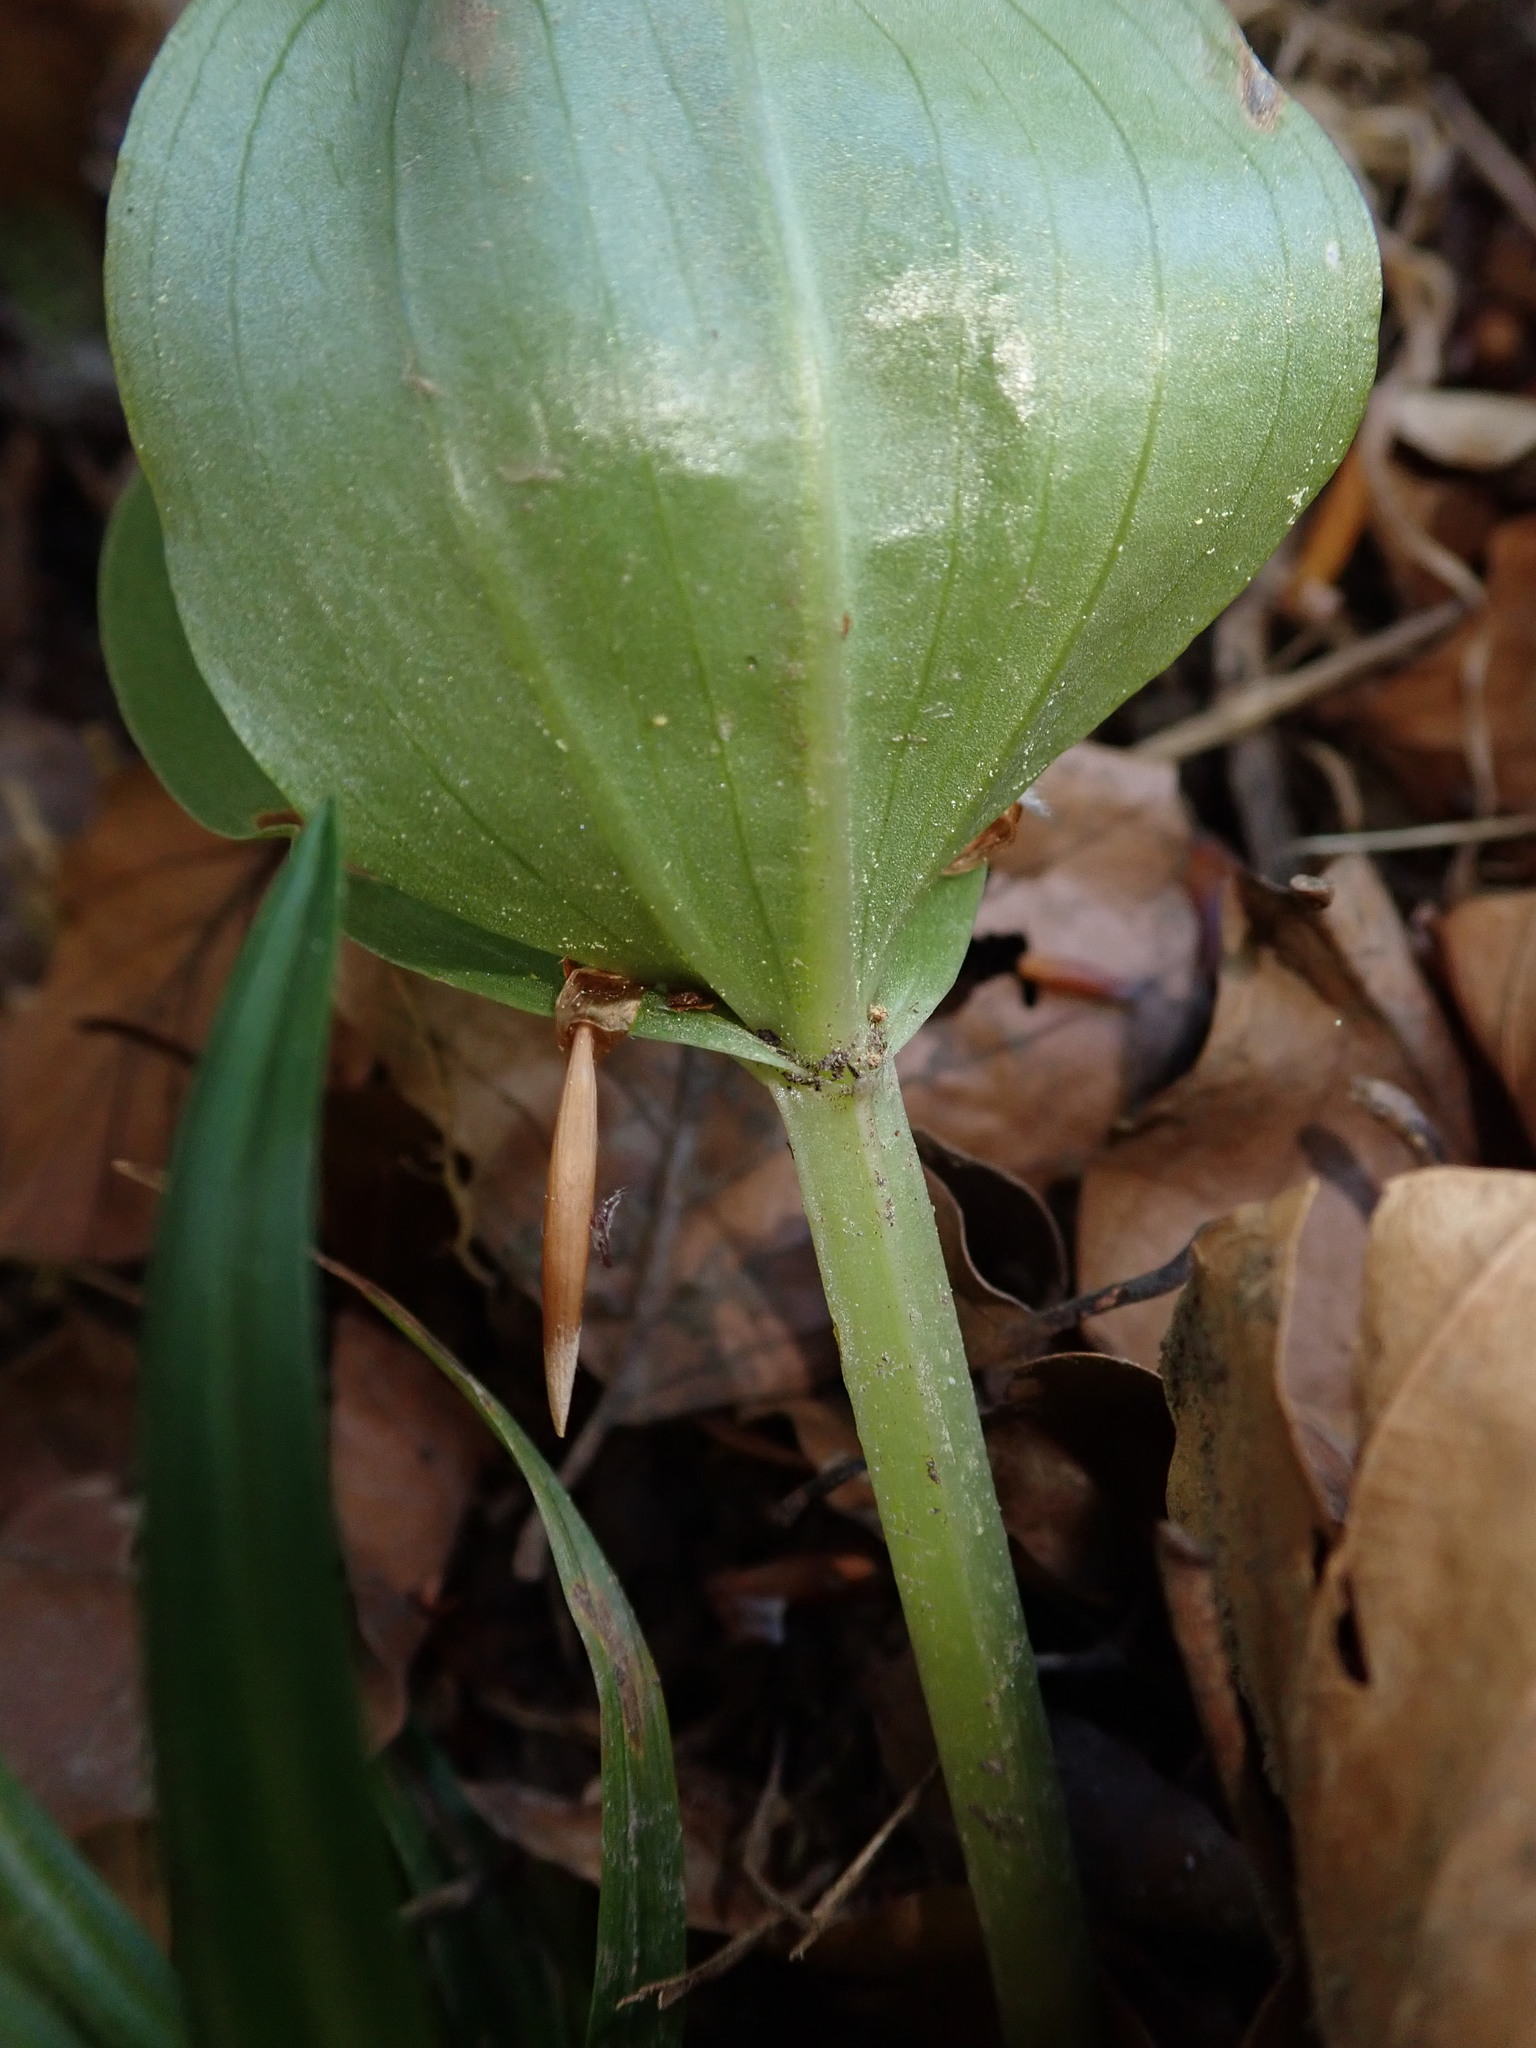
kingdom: Plantae
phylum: Tracheophyta
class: Liliopsida
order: Asparagales
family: Orchidaceae
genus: Neottia
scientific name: Neottia ovata
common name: Common twayblade
